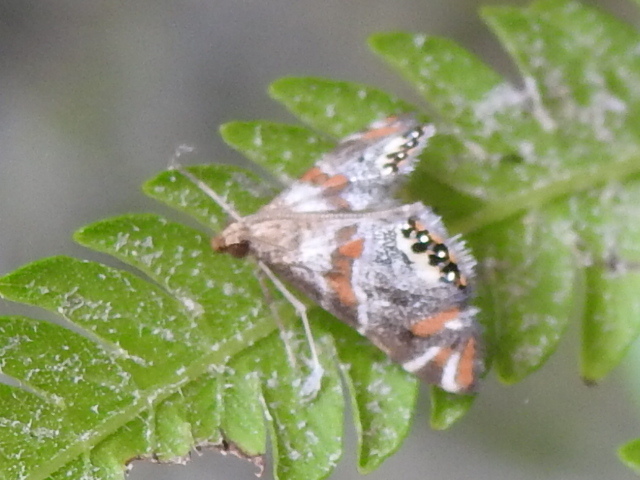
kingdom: Animalia
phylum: Arthropoda
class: Insecta
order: Lepidoptera
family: Crambidae
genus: Petrophila
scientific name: Petrophila jaliscalis
